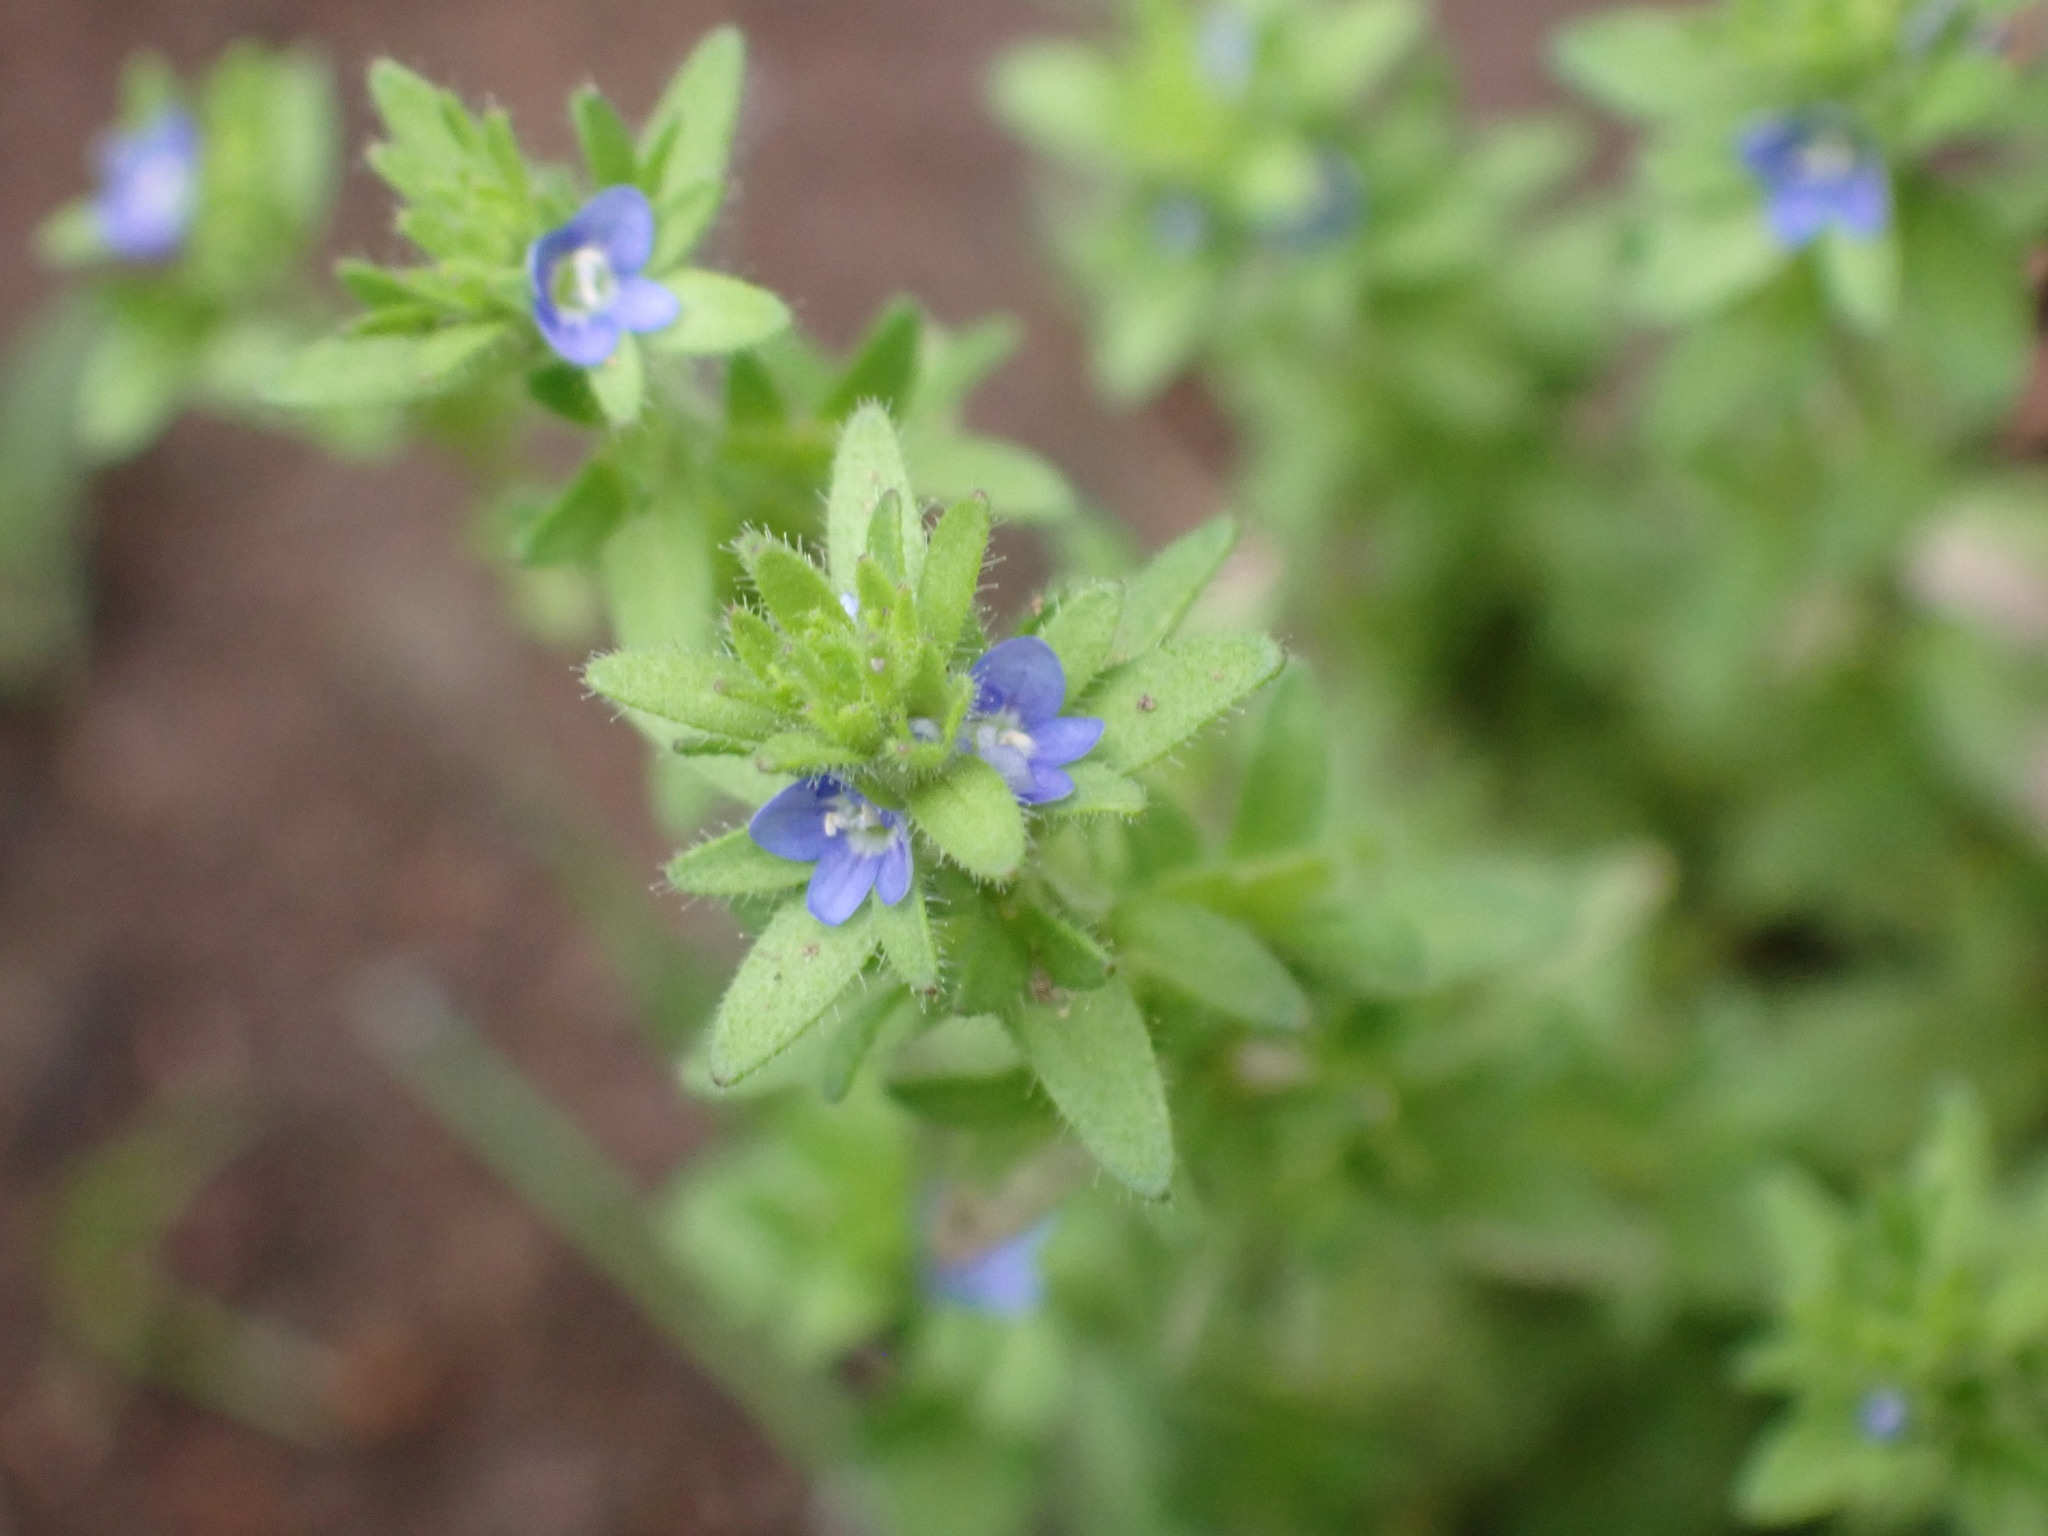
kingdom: Plantae
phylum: Tracheophyta
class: Magnoliopsida
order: Lamiales
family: Plantaginaceae
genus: Veronica
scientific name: Veronica arvensis
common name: Corn speedwell
